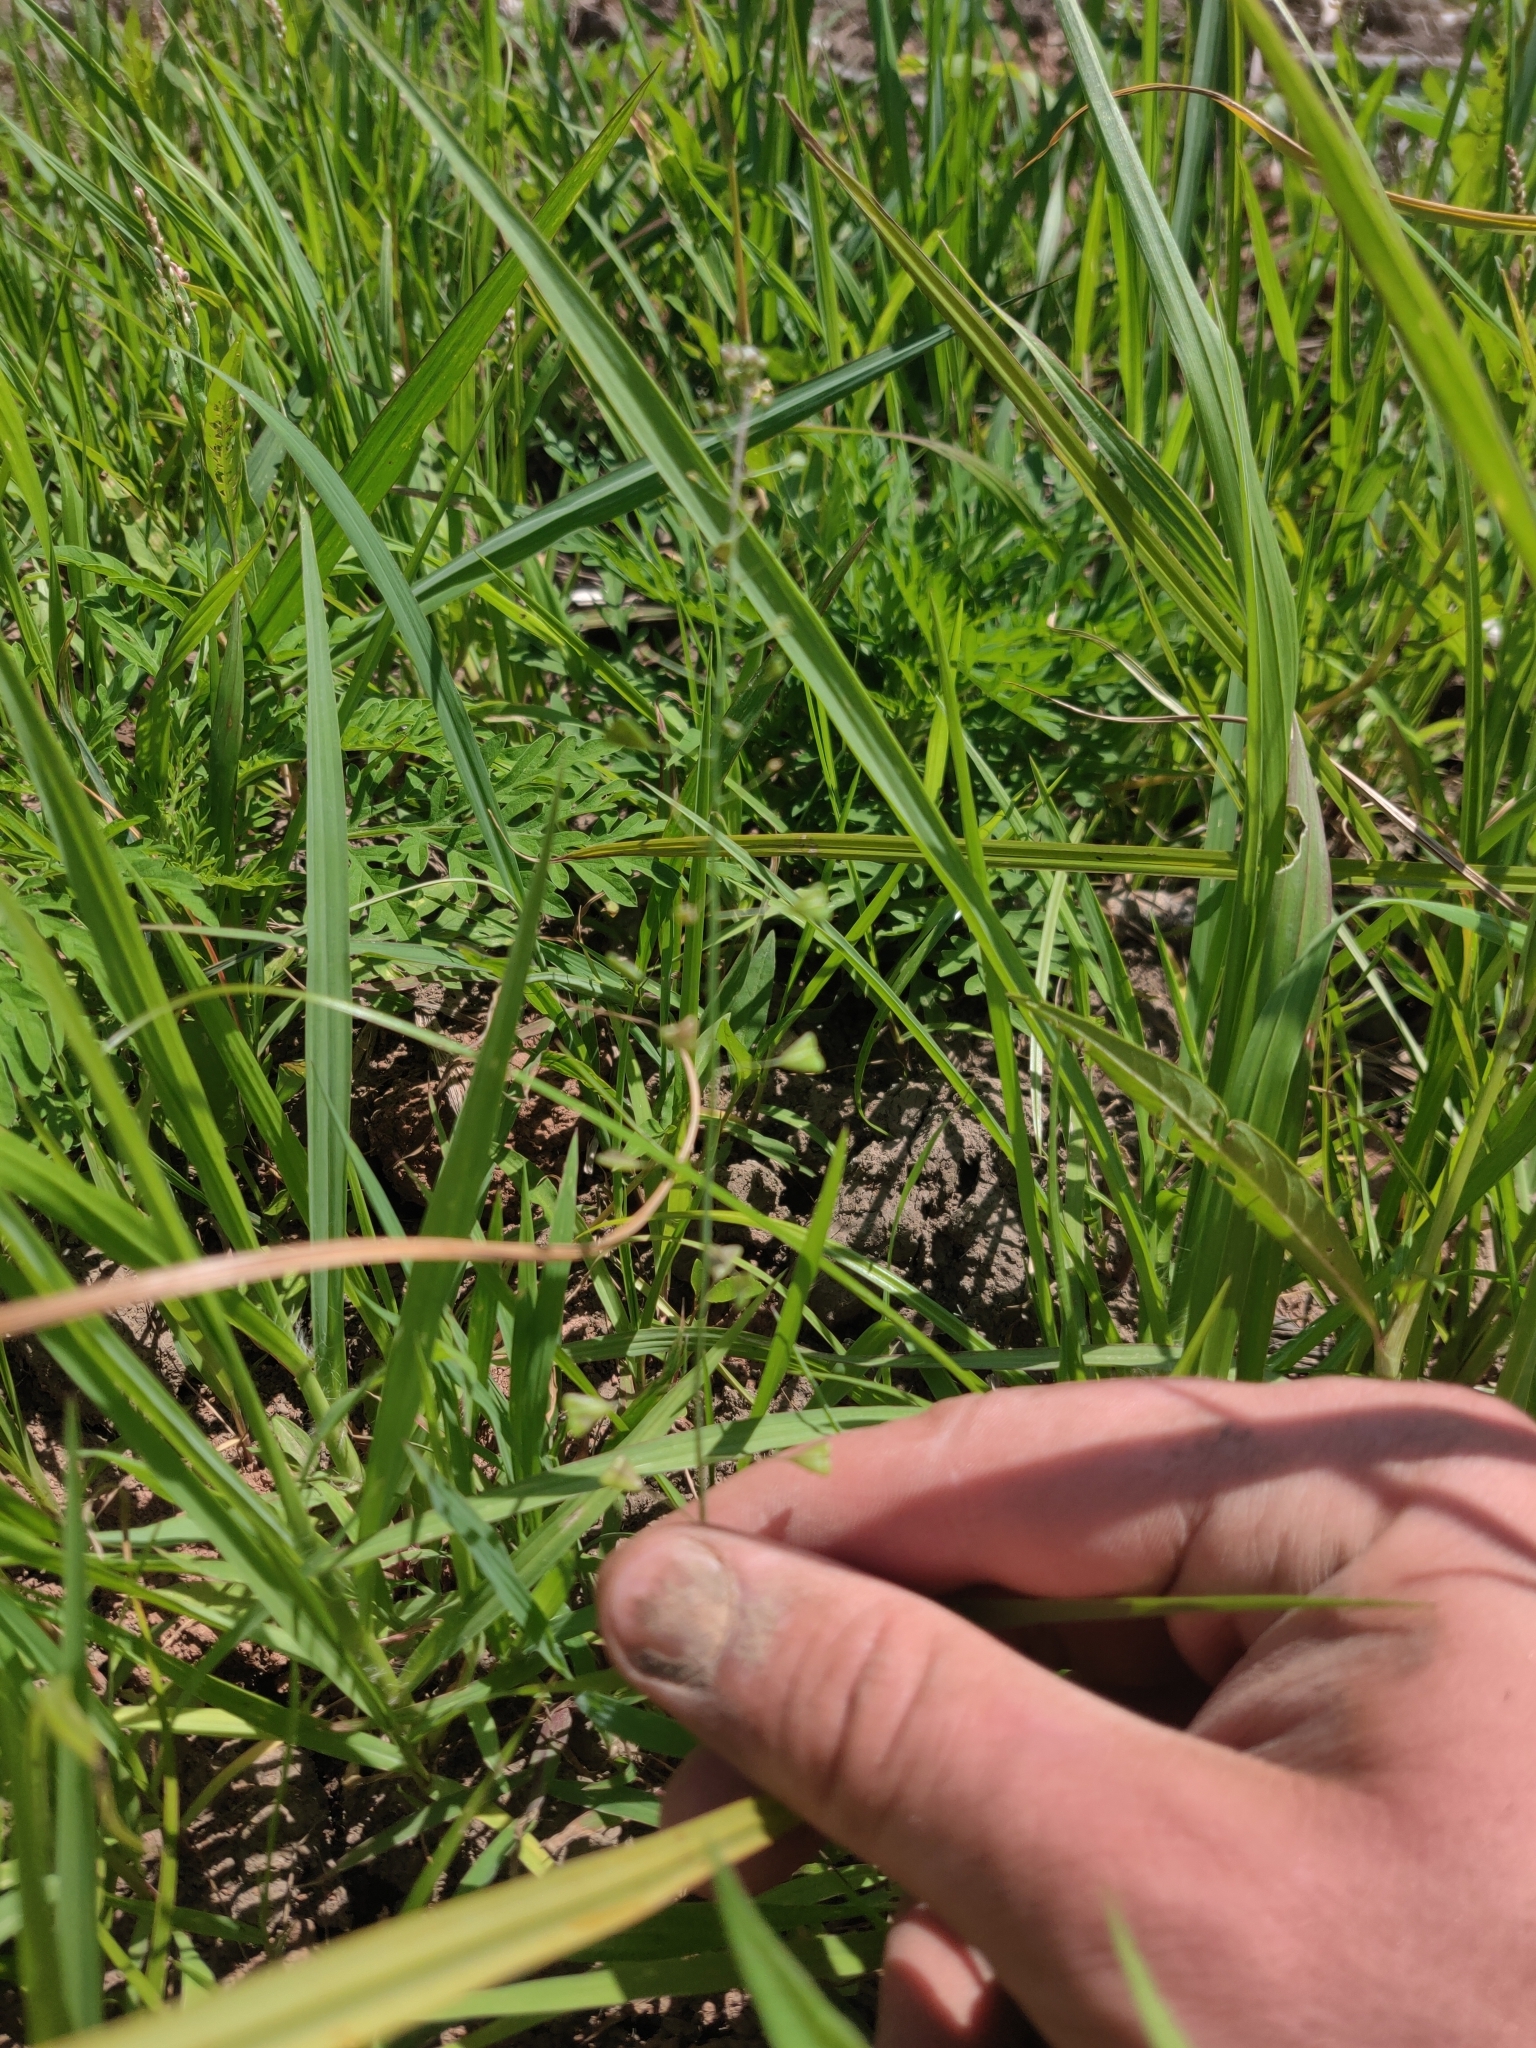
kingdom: Plantae
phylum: Tracheophyta
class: Magnoliopsida
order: Brassicales
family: Brassicaceae
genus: Capsella
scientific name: Capsella bursa-pastoris
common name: Shepherd's purse
